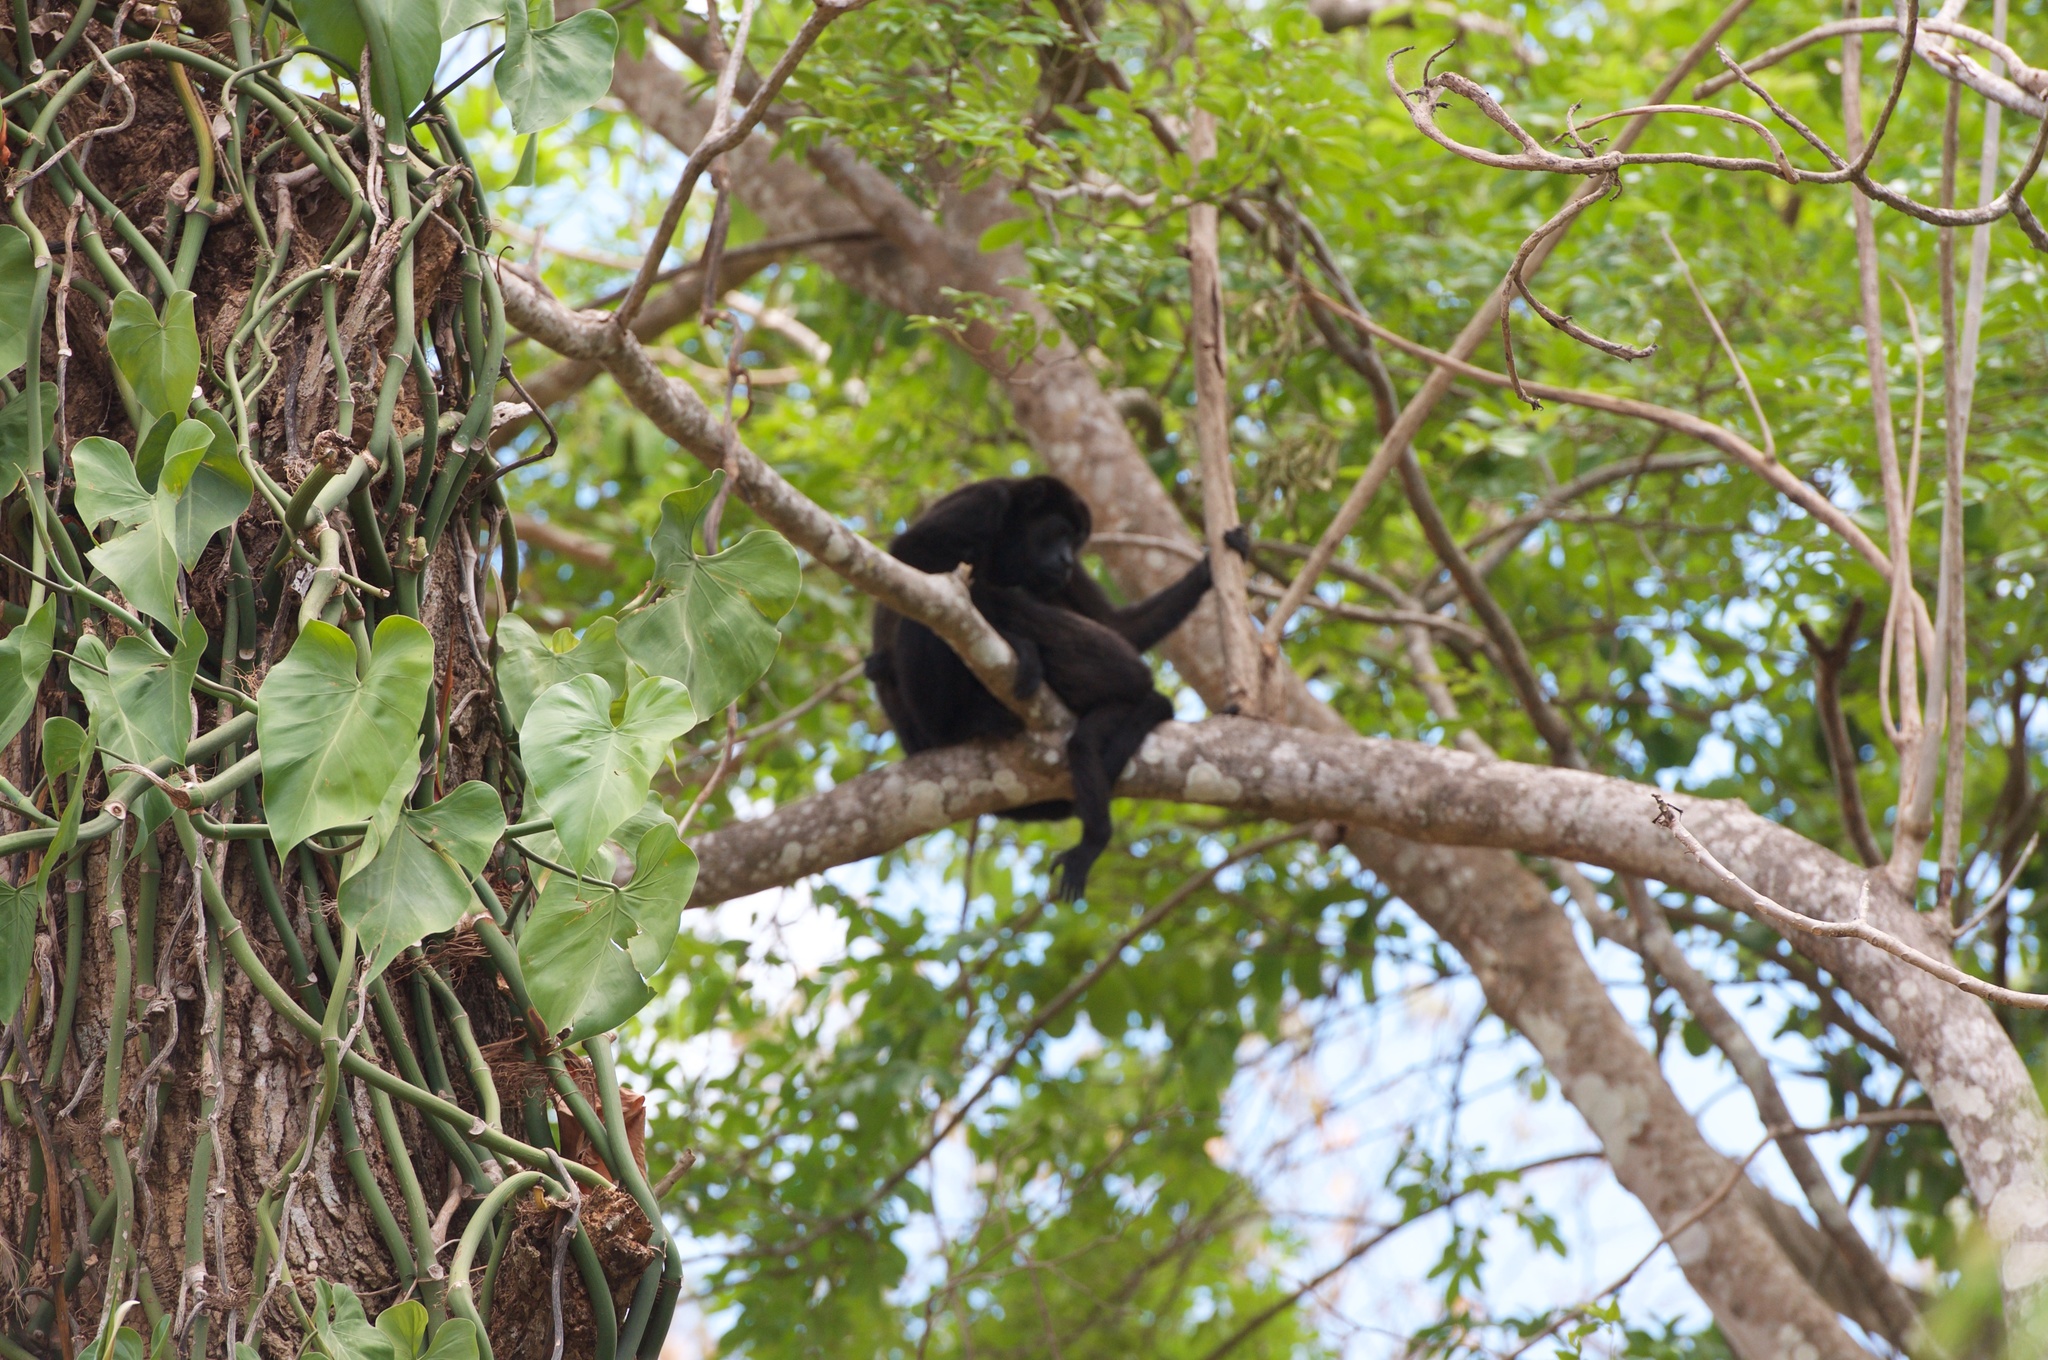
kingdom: Animalia
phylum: Chordata
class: Mammalia
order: Primates
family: Atelidae
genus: Alouatta
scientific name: Alouatta palliata
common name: Mantled howler
